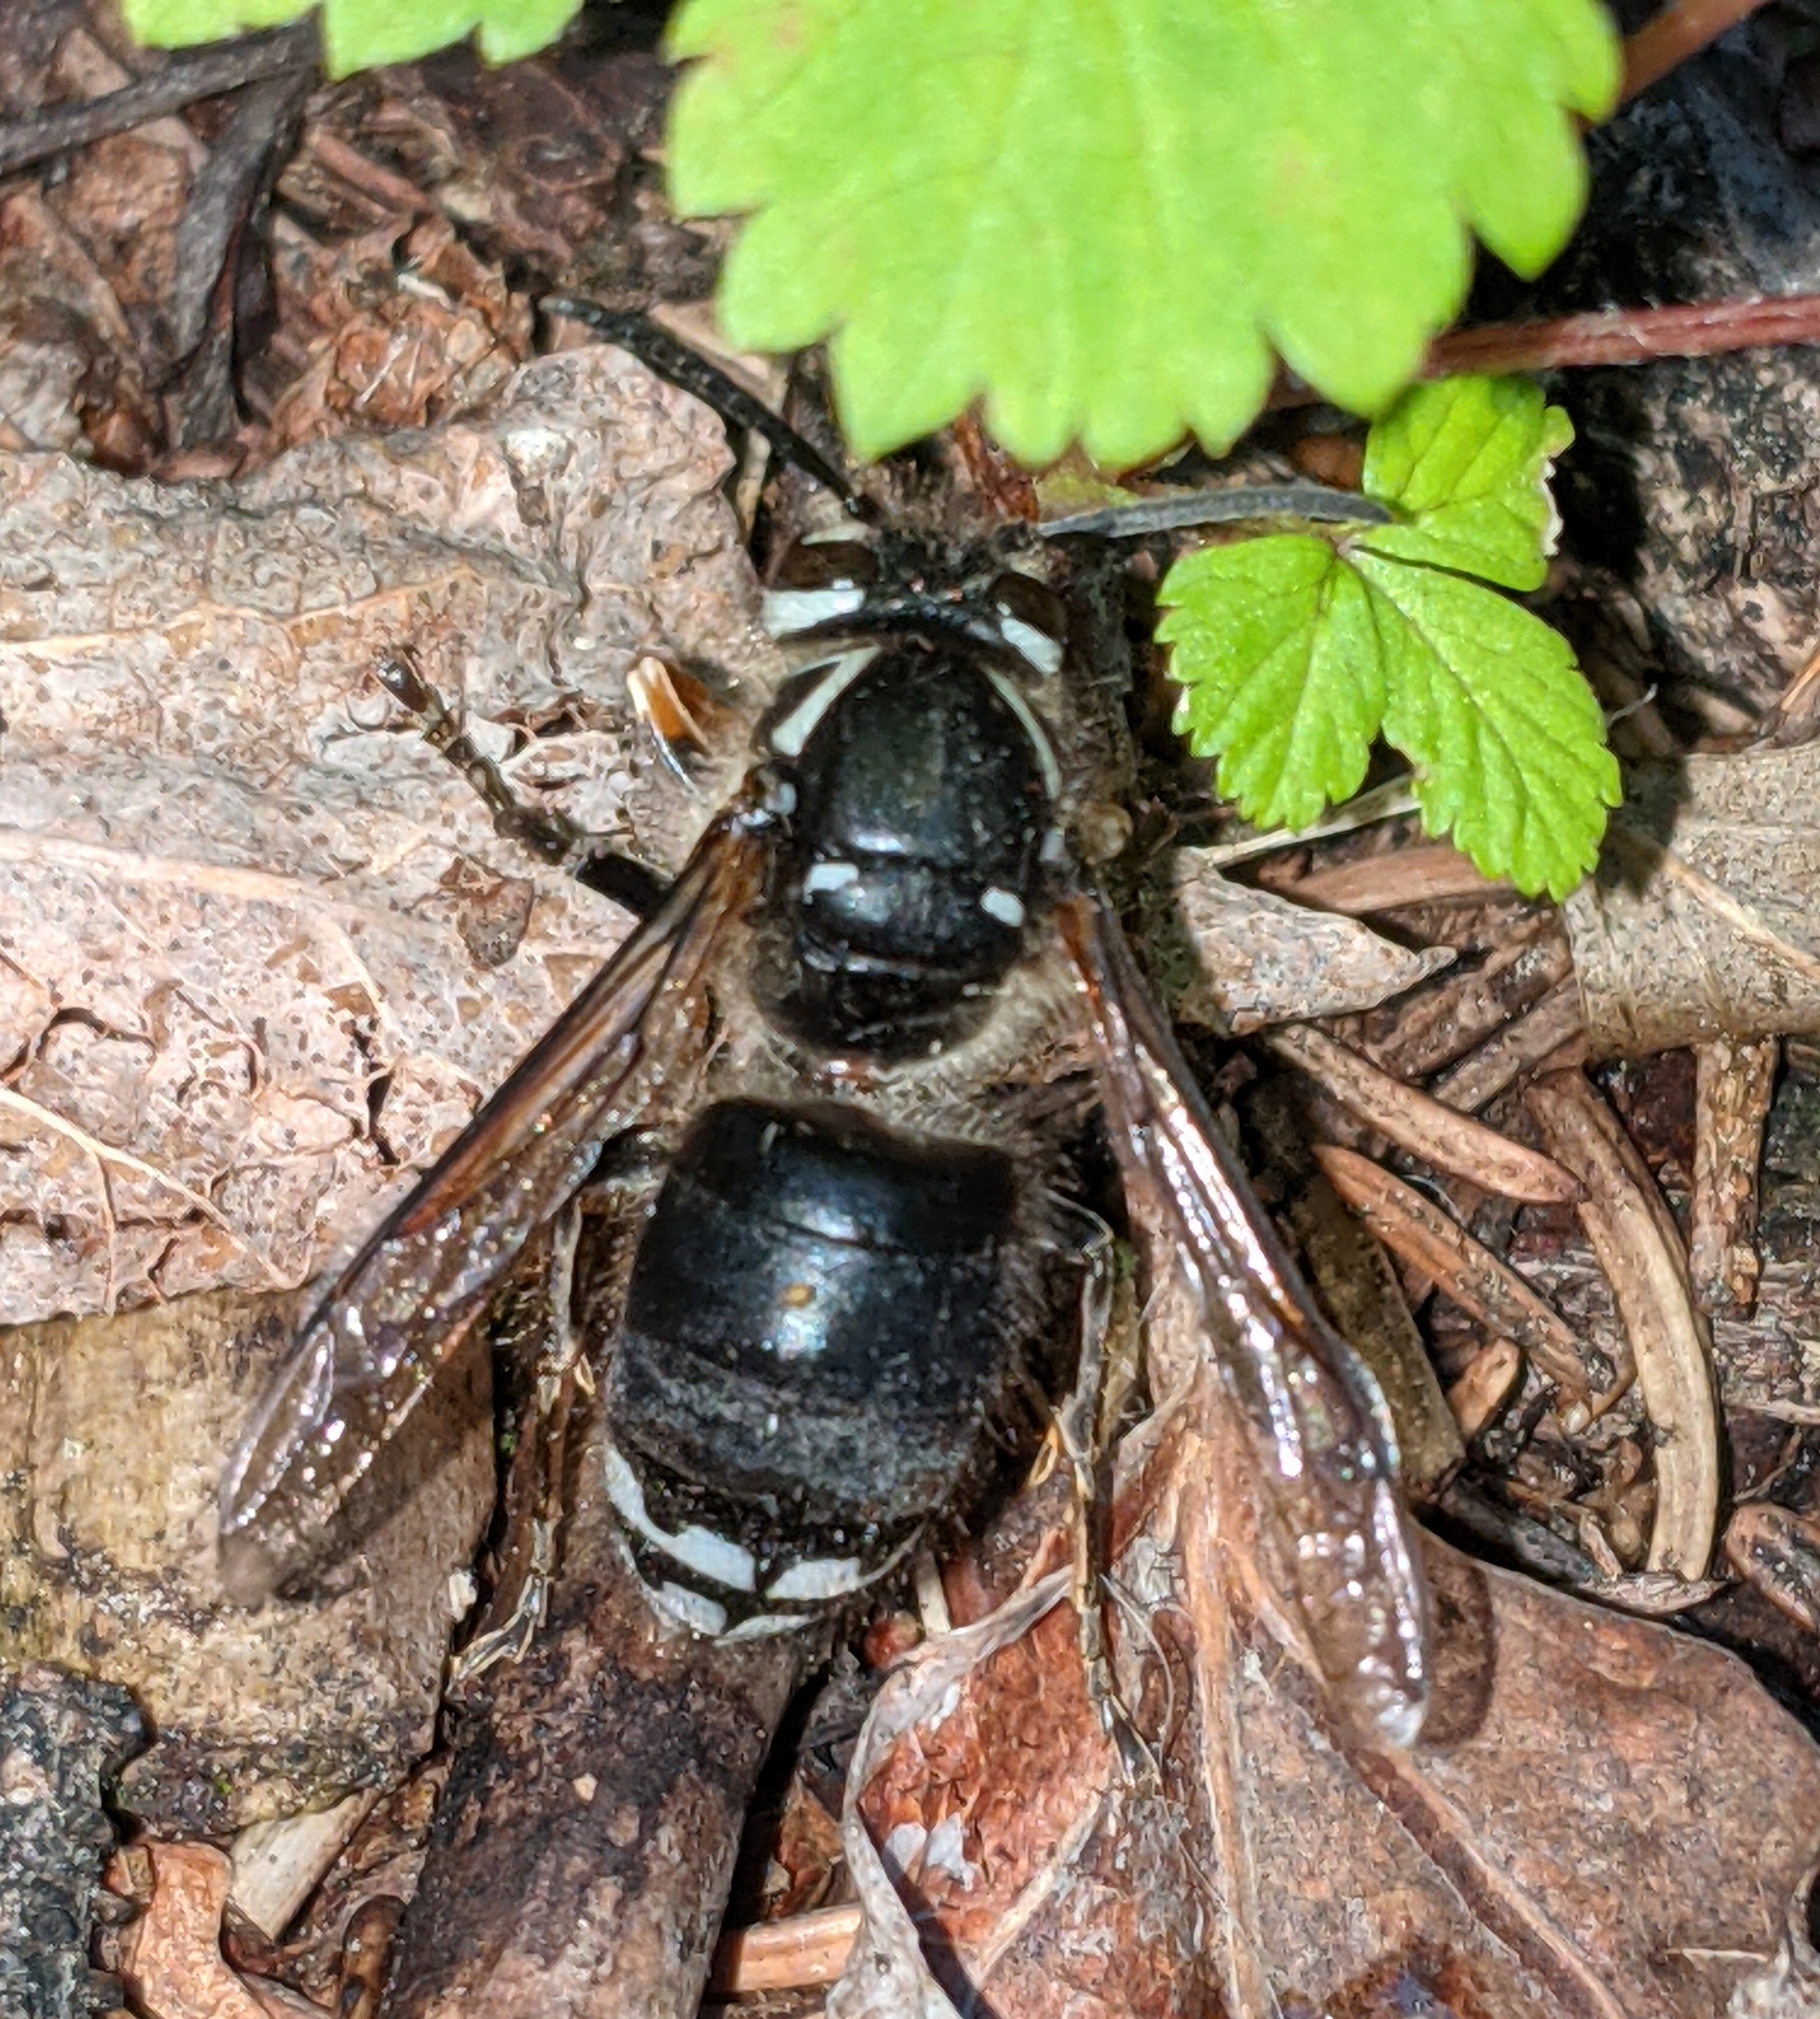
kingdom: Animalia
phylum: Arthropoda
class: Insecta
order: Hymenoptera
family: Vespidae
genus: Dolichovespula
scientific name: Dolichovespula maculata
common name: Bald-faced hornet
